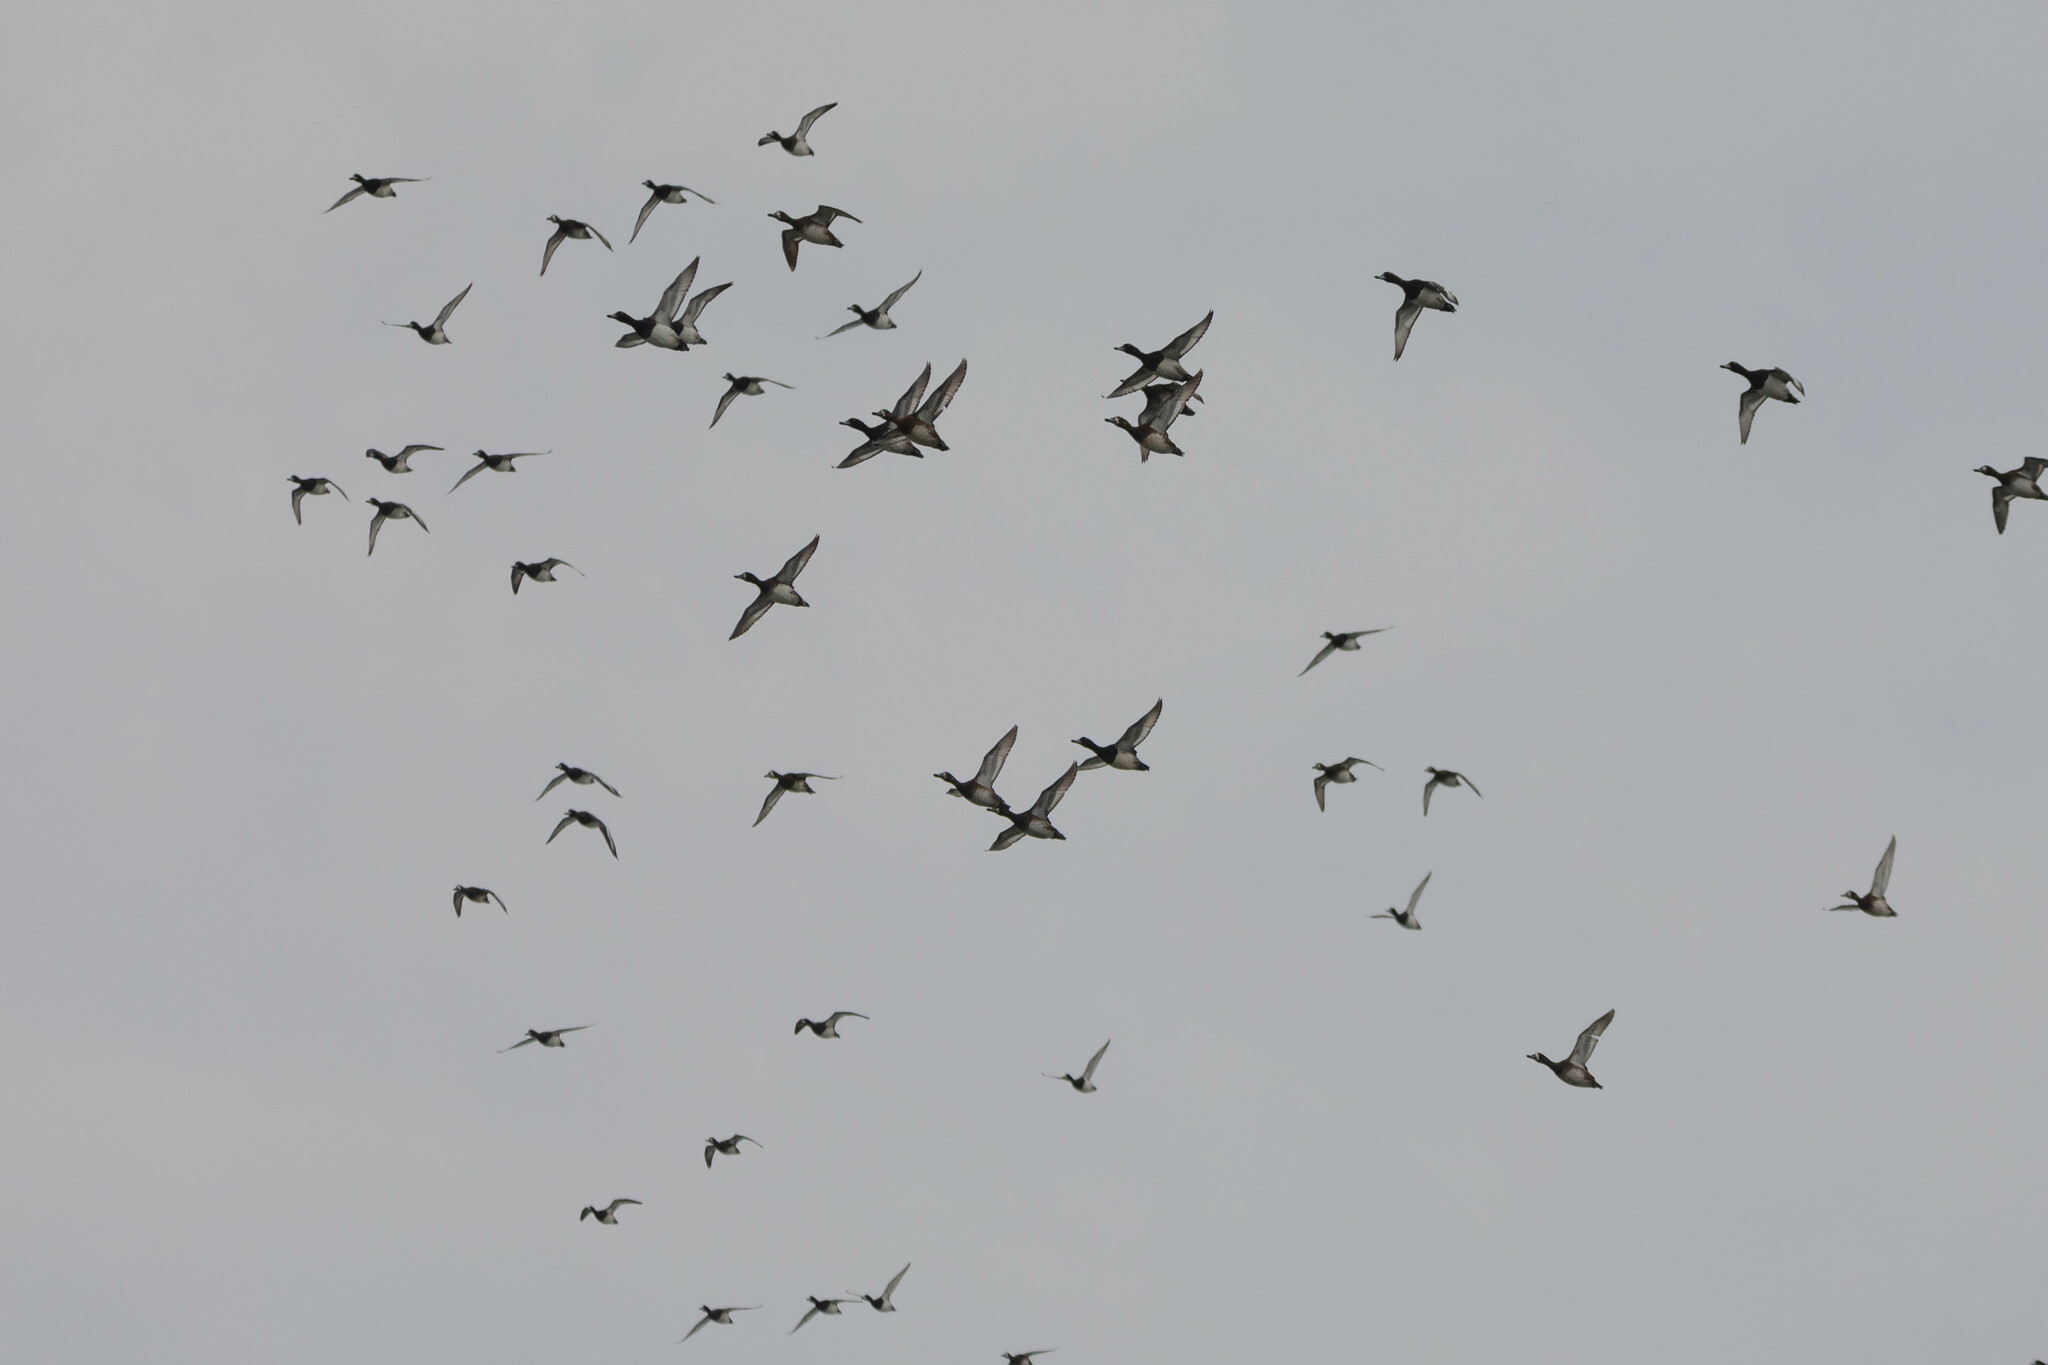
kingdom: Animalia
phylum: Chordata
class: Aves
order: Anseriformes
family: Anatidae
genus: Aythya
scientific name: Aythya marila
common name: Greater scaup
